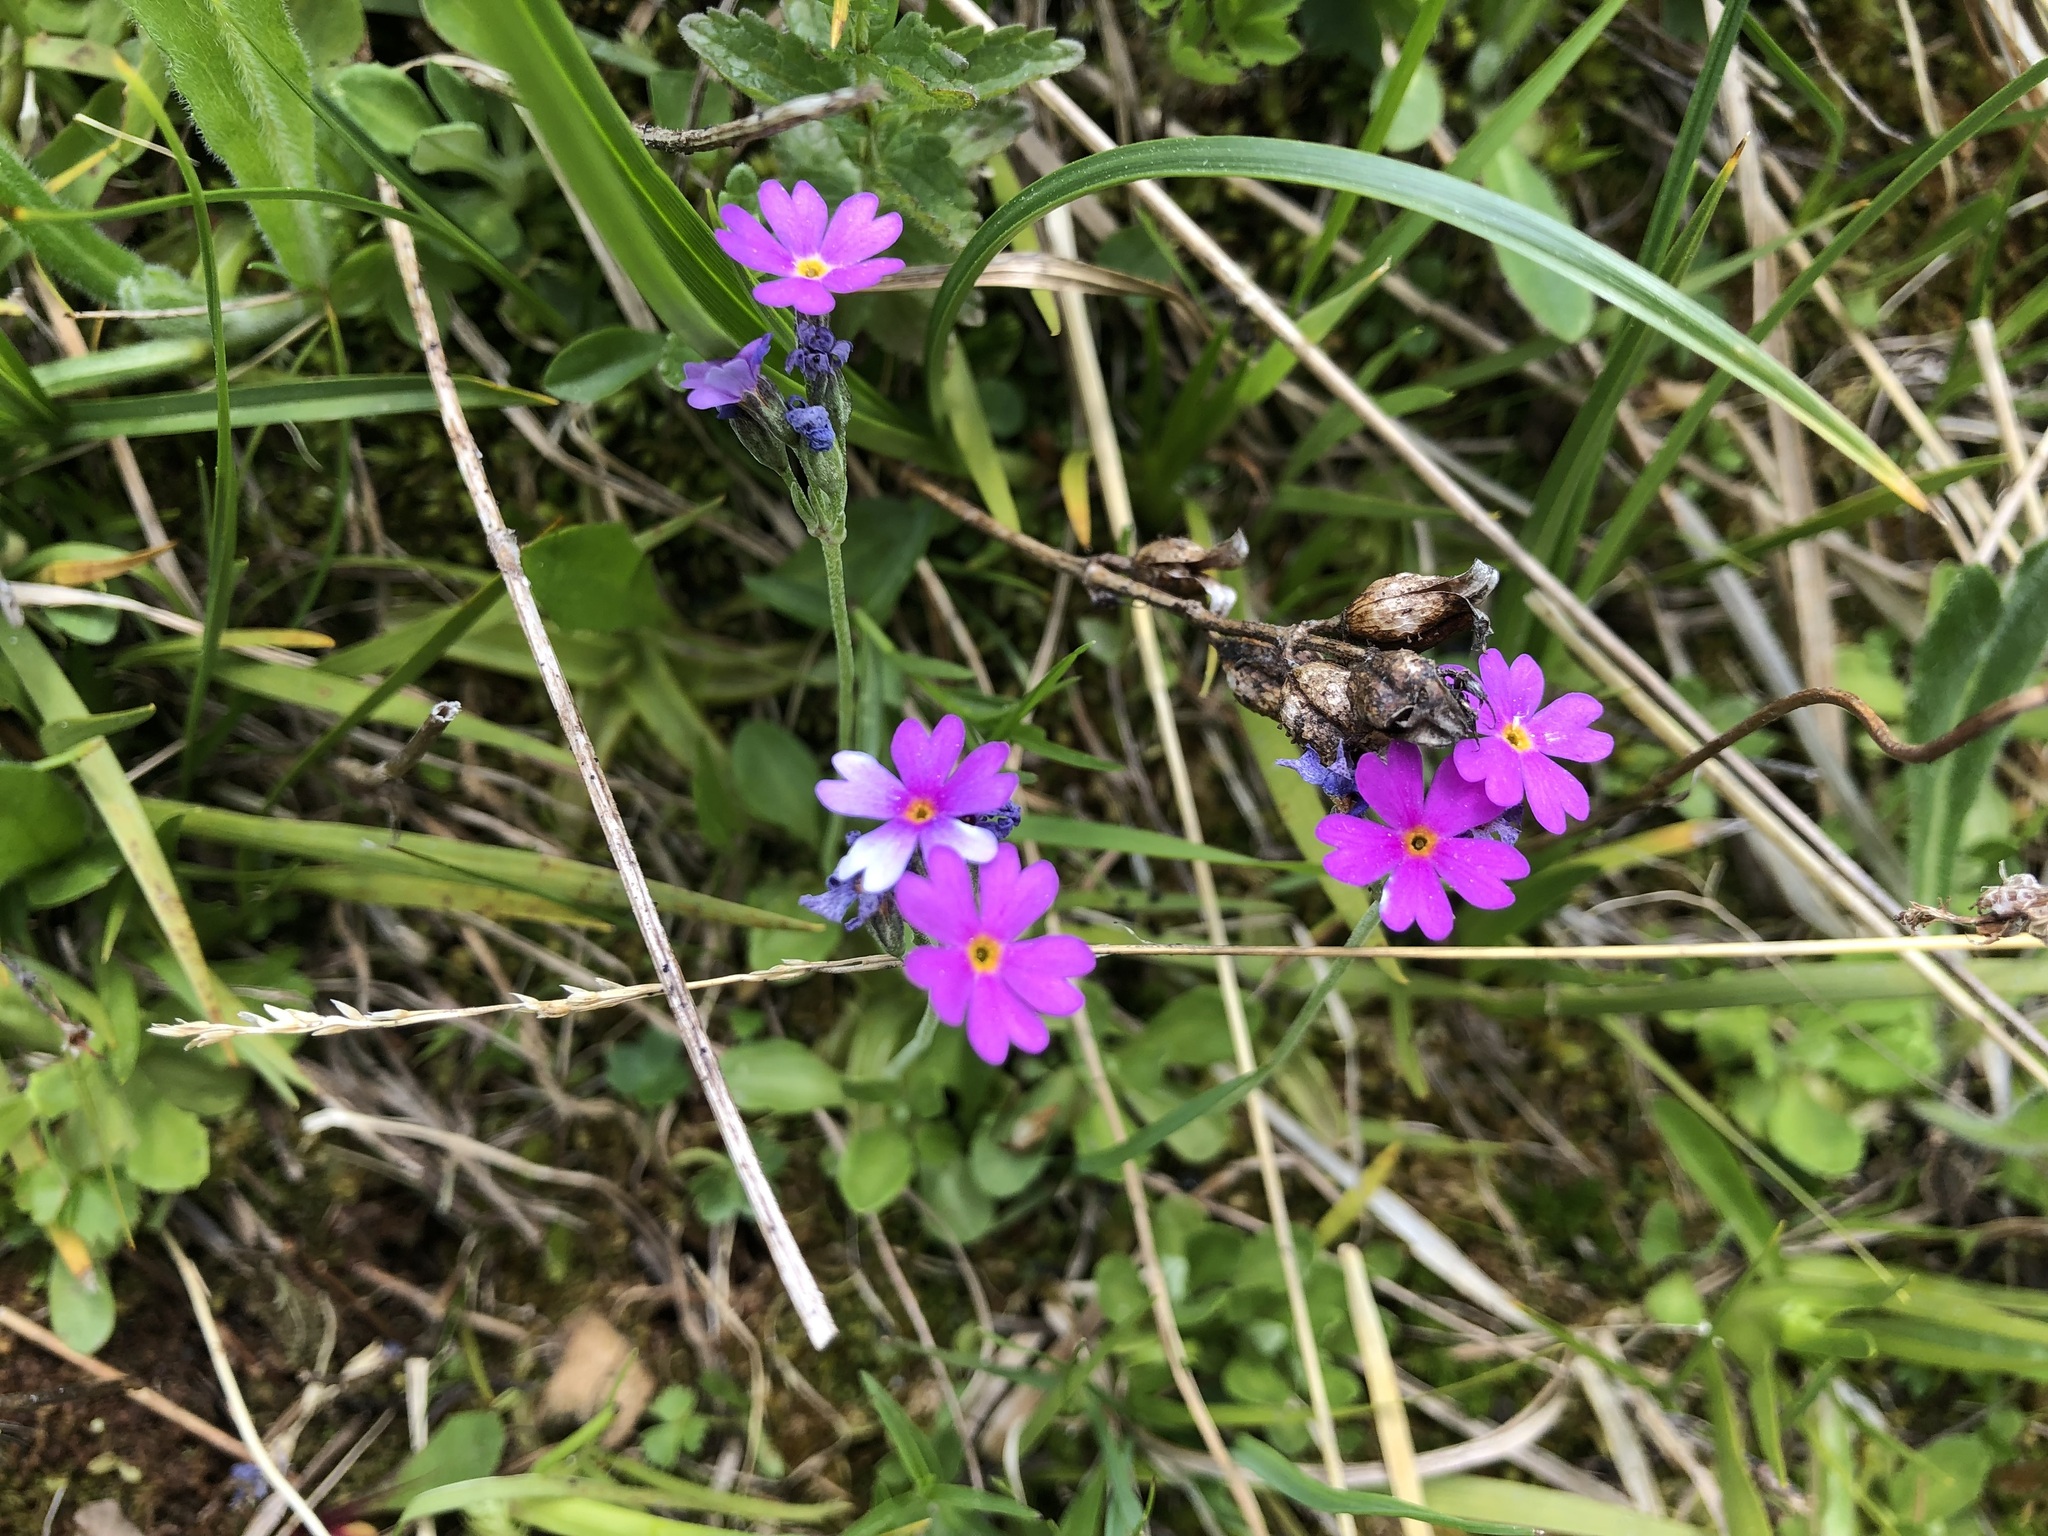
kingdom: Plantae
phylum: Tracheophyta
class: Magnoliopsida
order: Ericales
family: Primulaceae
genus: Primula
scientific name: Primula farinosa
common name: Bird's-eye primrose
